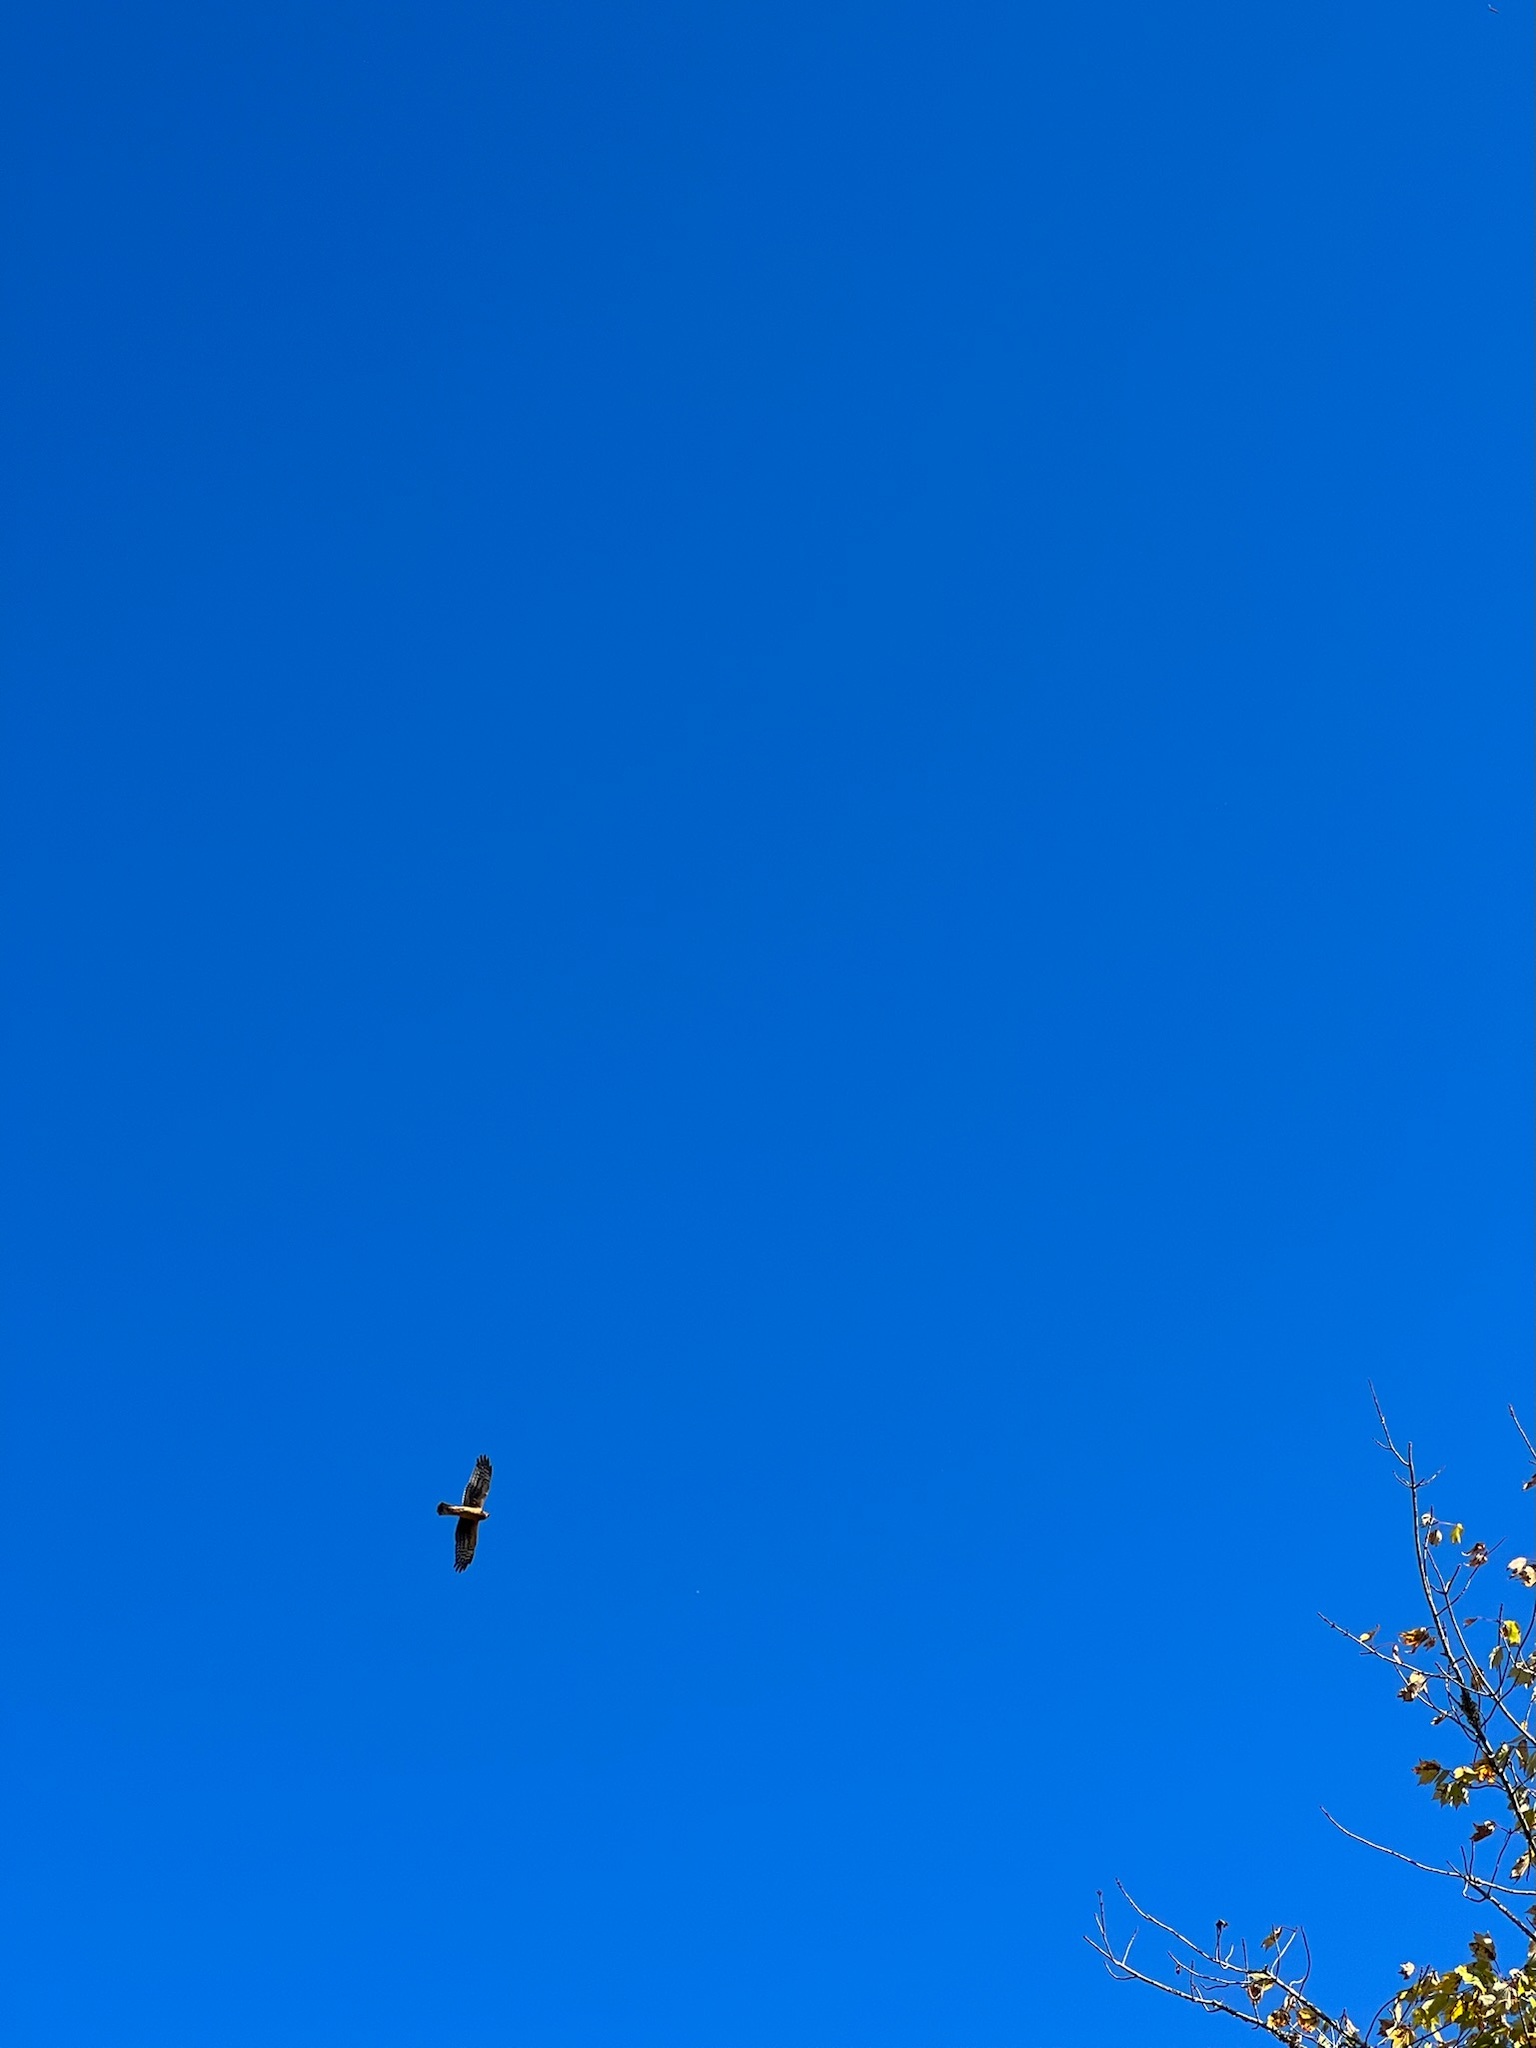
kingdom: Animalia
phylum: Chordata
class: Aves
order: Accipitriformes
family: Accipitridae
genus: Circus
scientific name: Circus cyaneus
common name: Hen harrier
